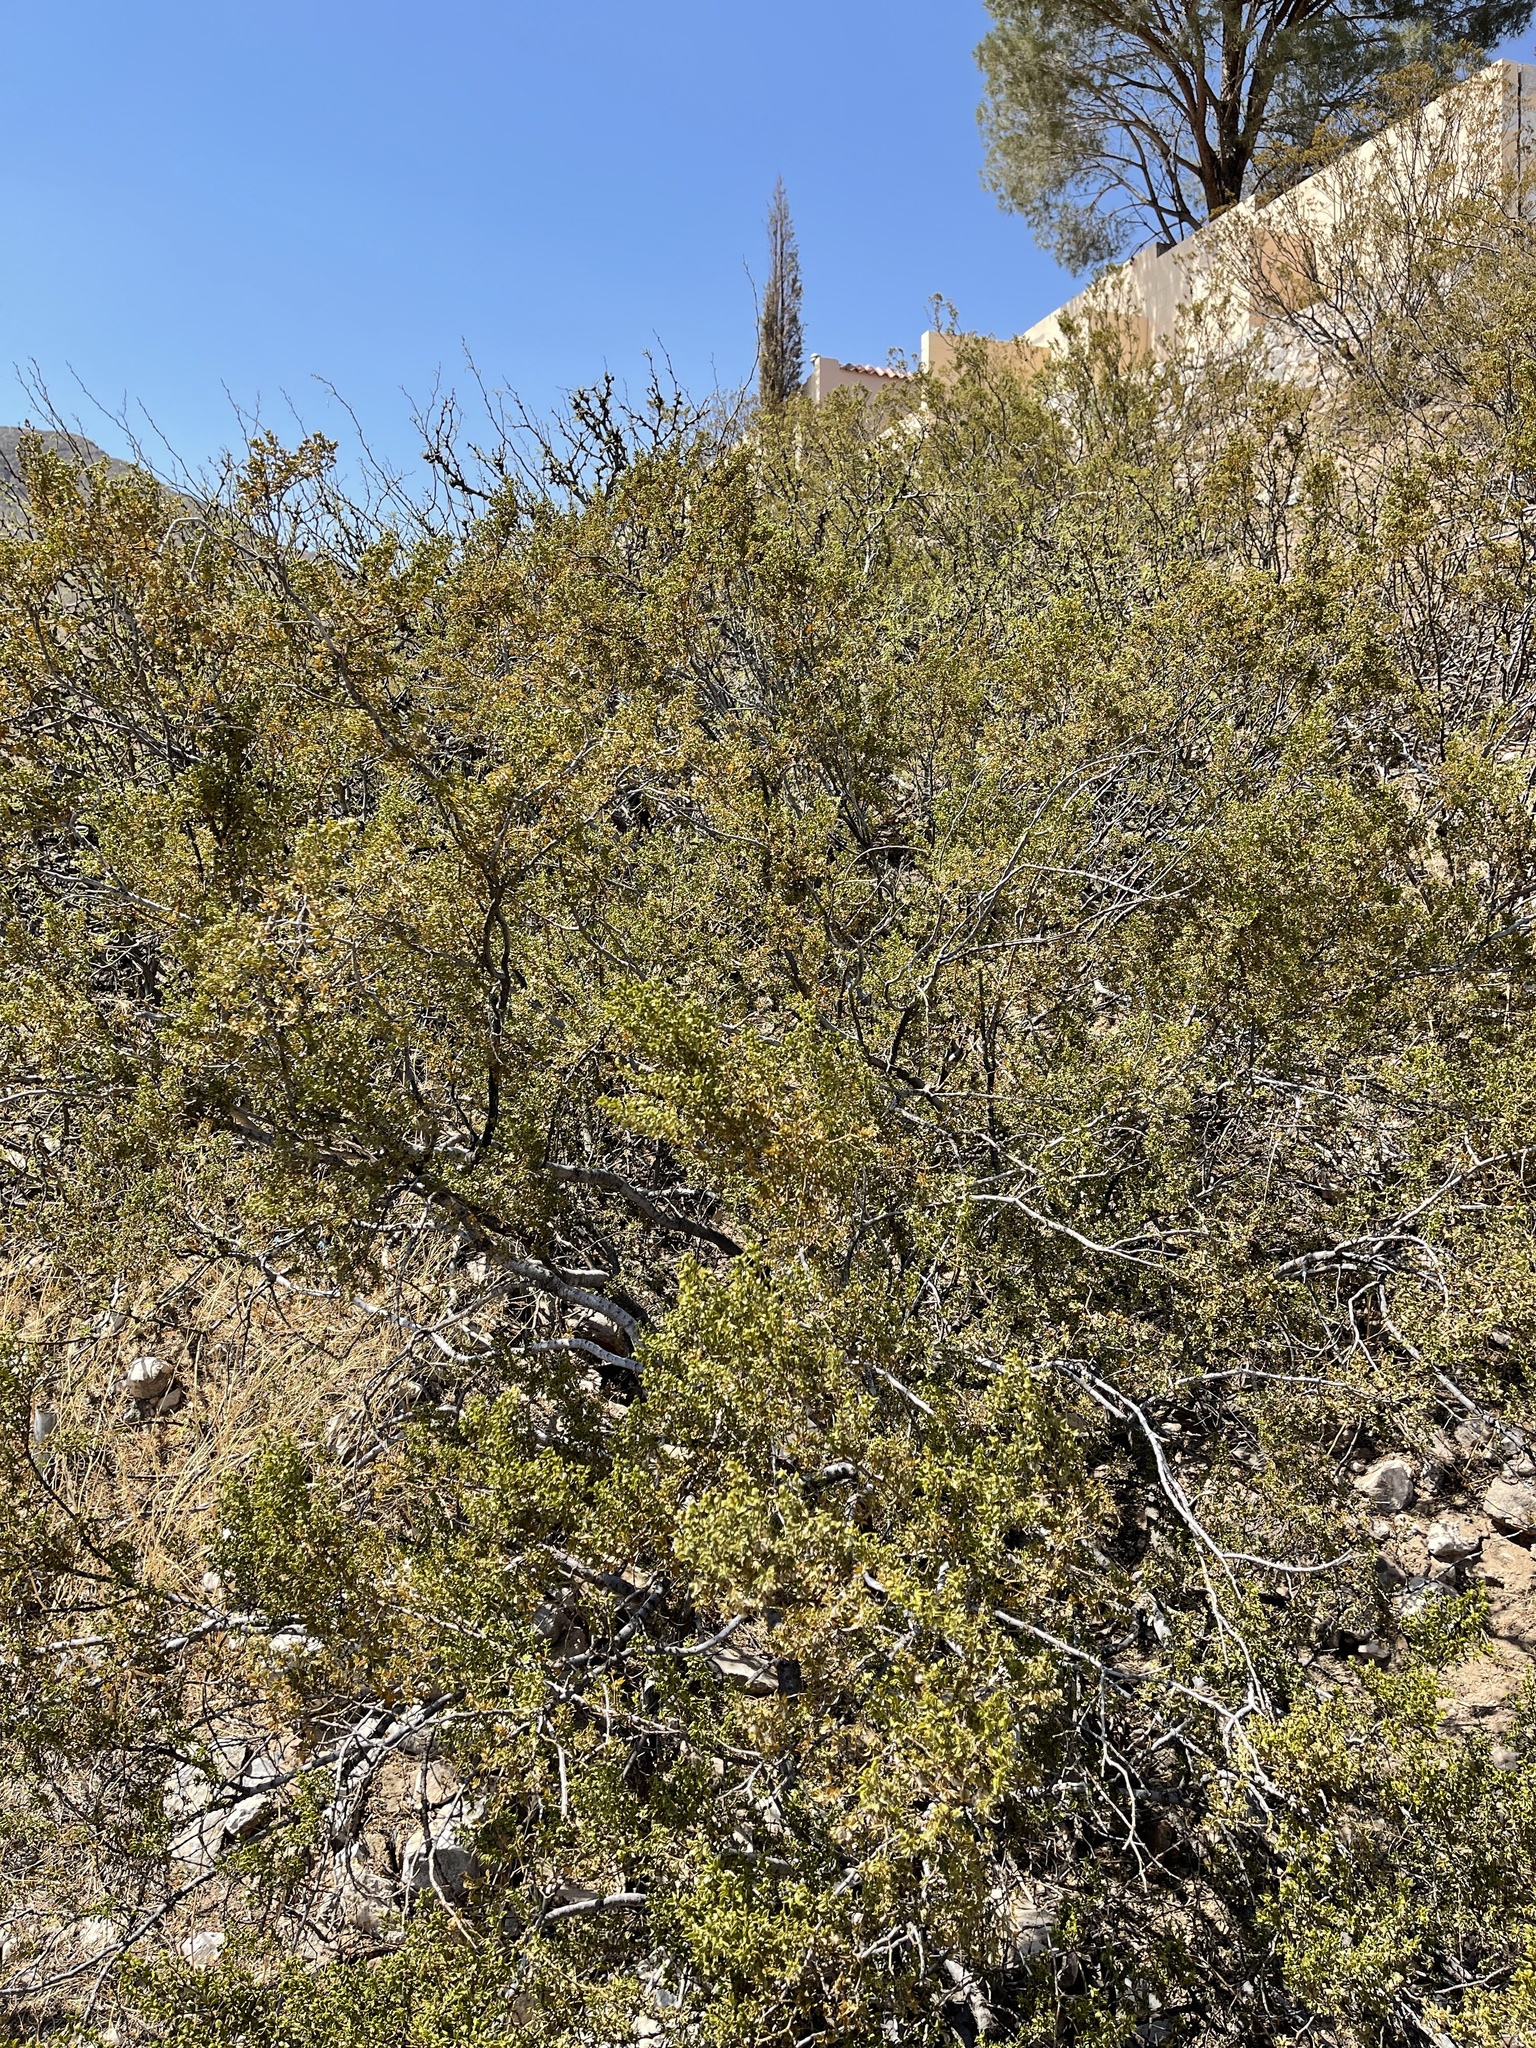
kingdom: Plantae
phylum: Tracheophyta
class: Magnoliopsida
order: Zygophyllales
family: Zygophyllaceae
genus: Larrea
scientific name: Larrea tridentata
